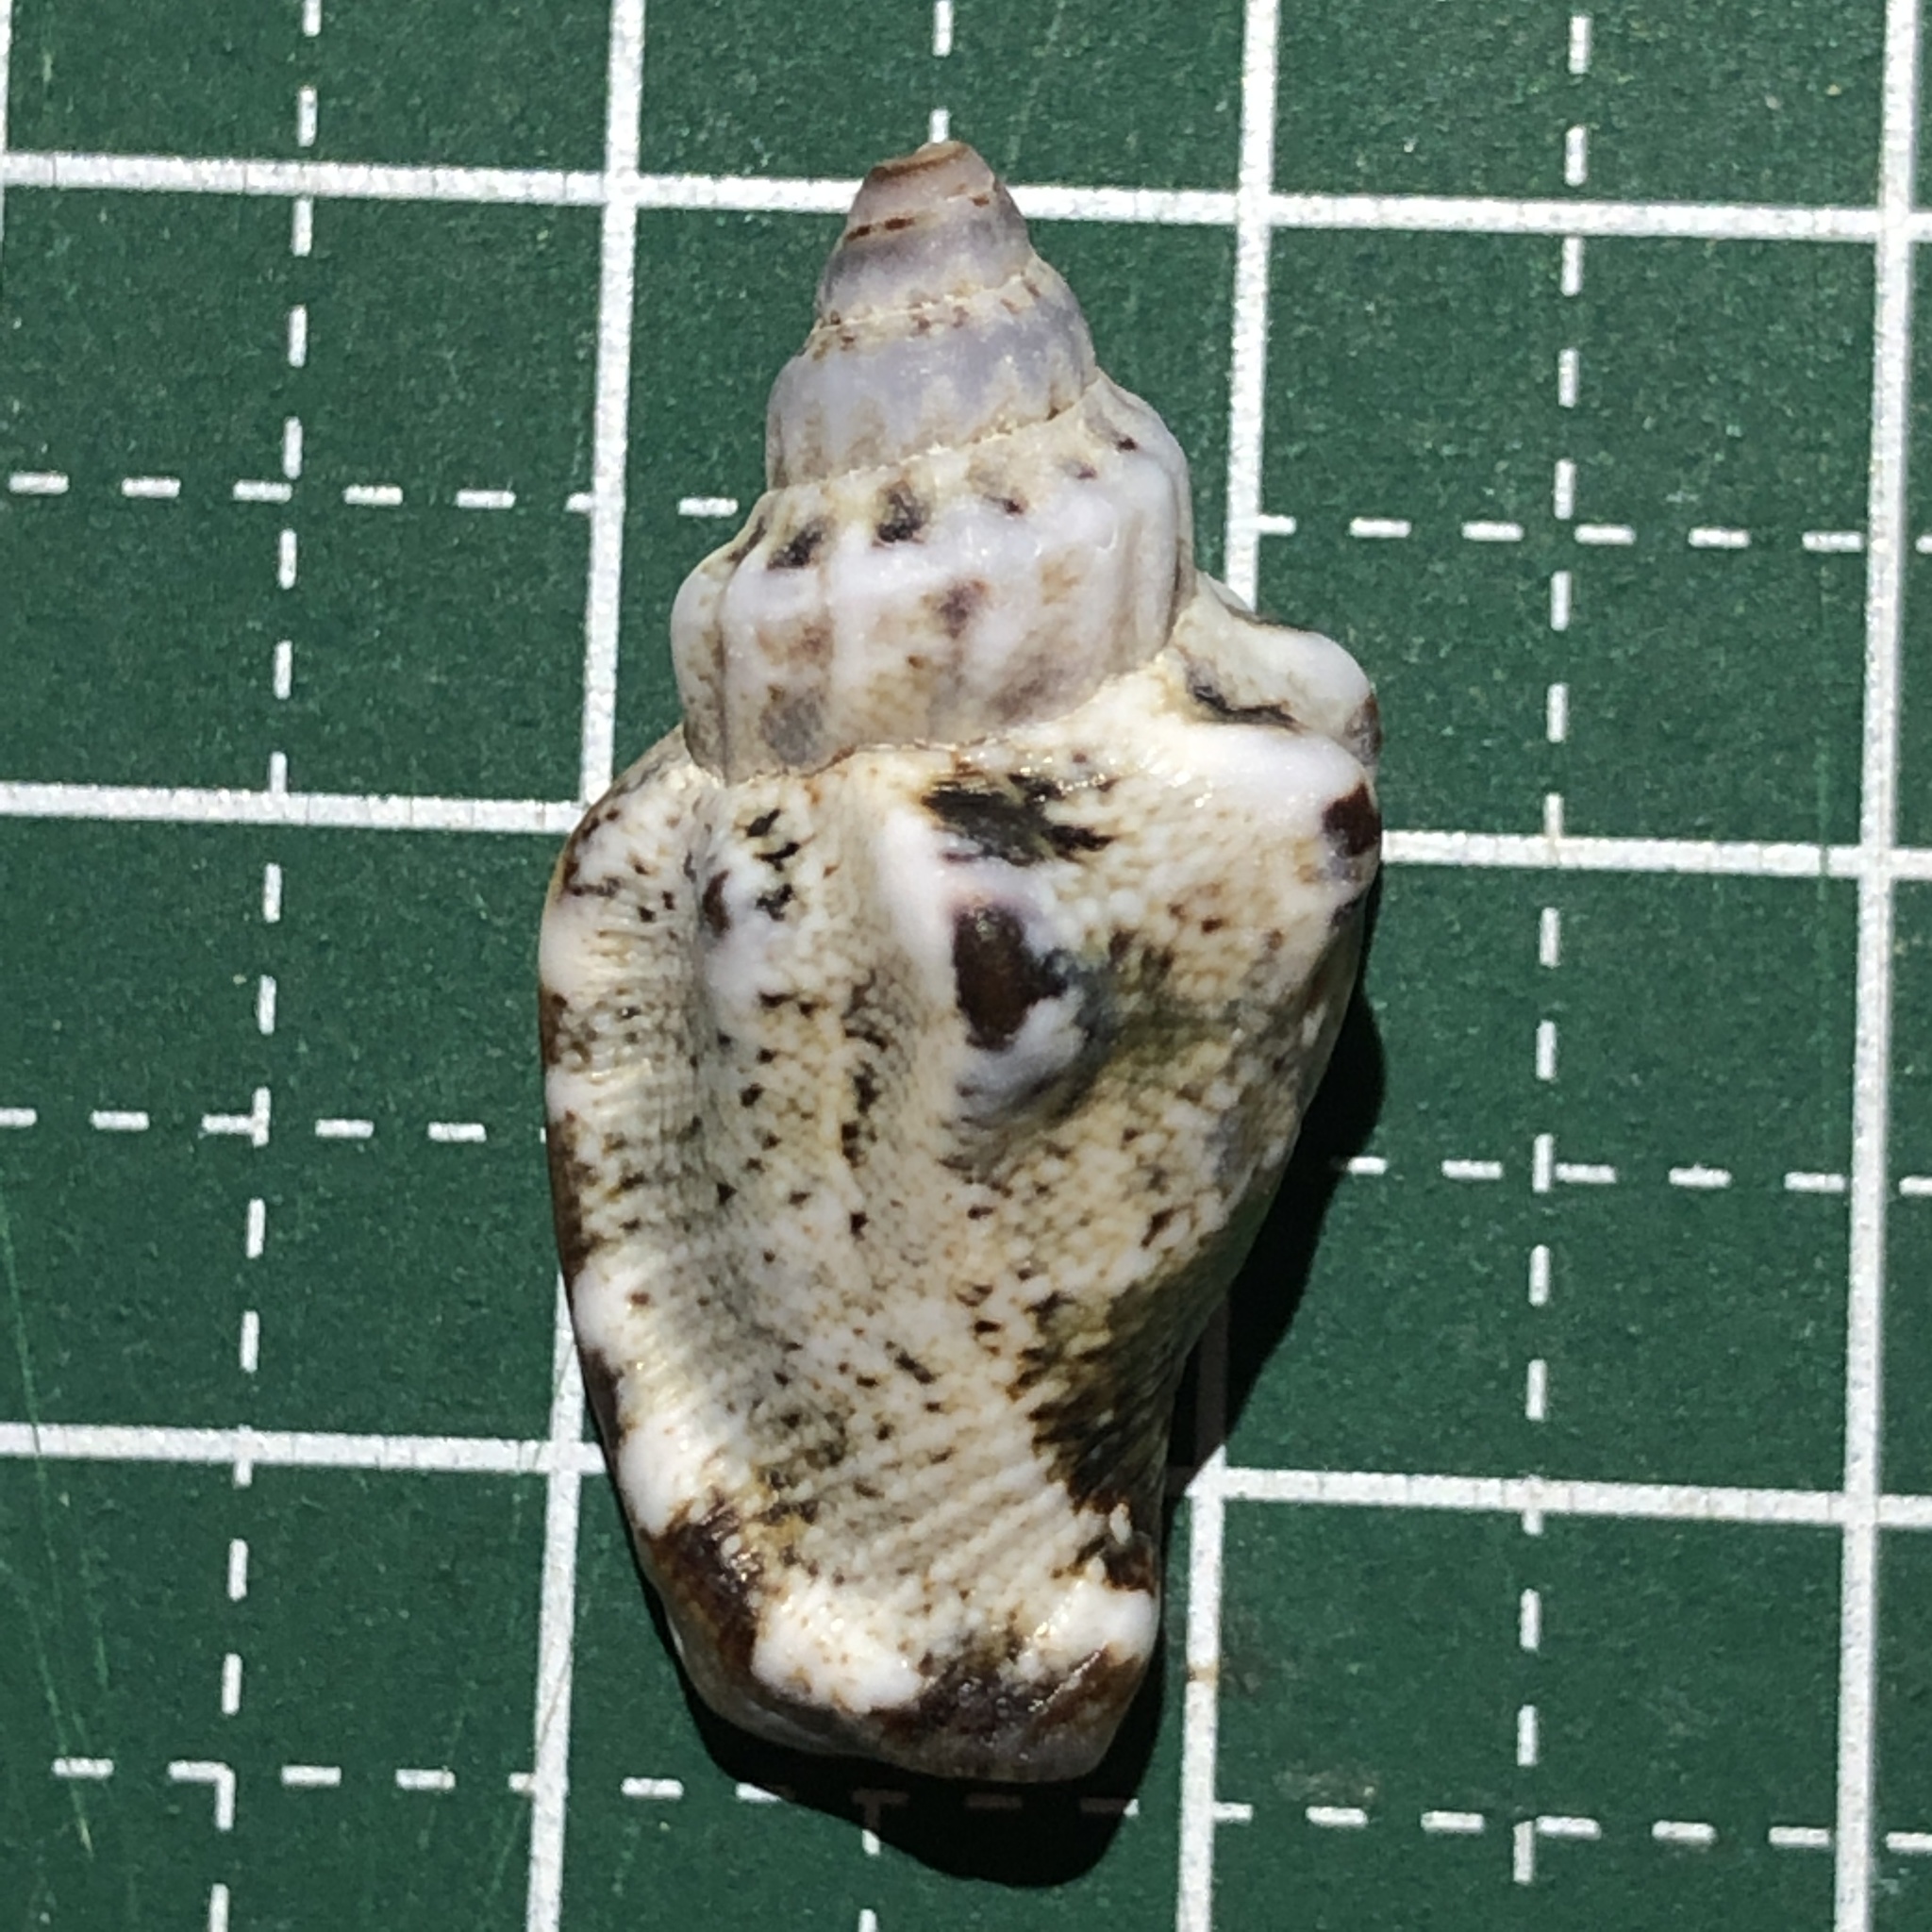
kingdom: Animalia
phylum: Mollusca
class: Gastropoda
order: Littorinimorpha
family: Strombidae
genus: Canarium
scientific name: Canarium labiatum
